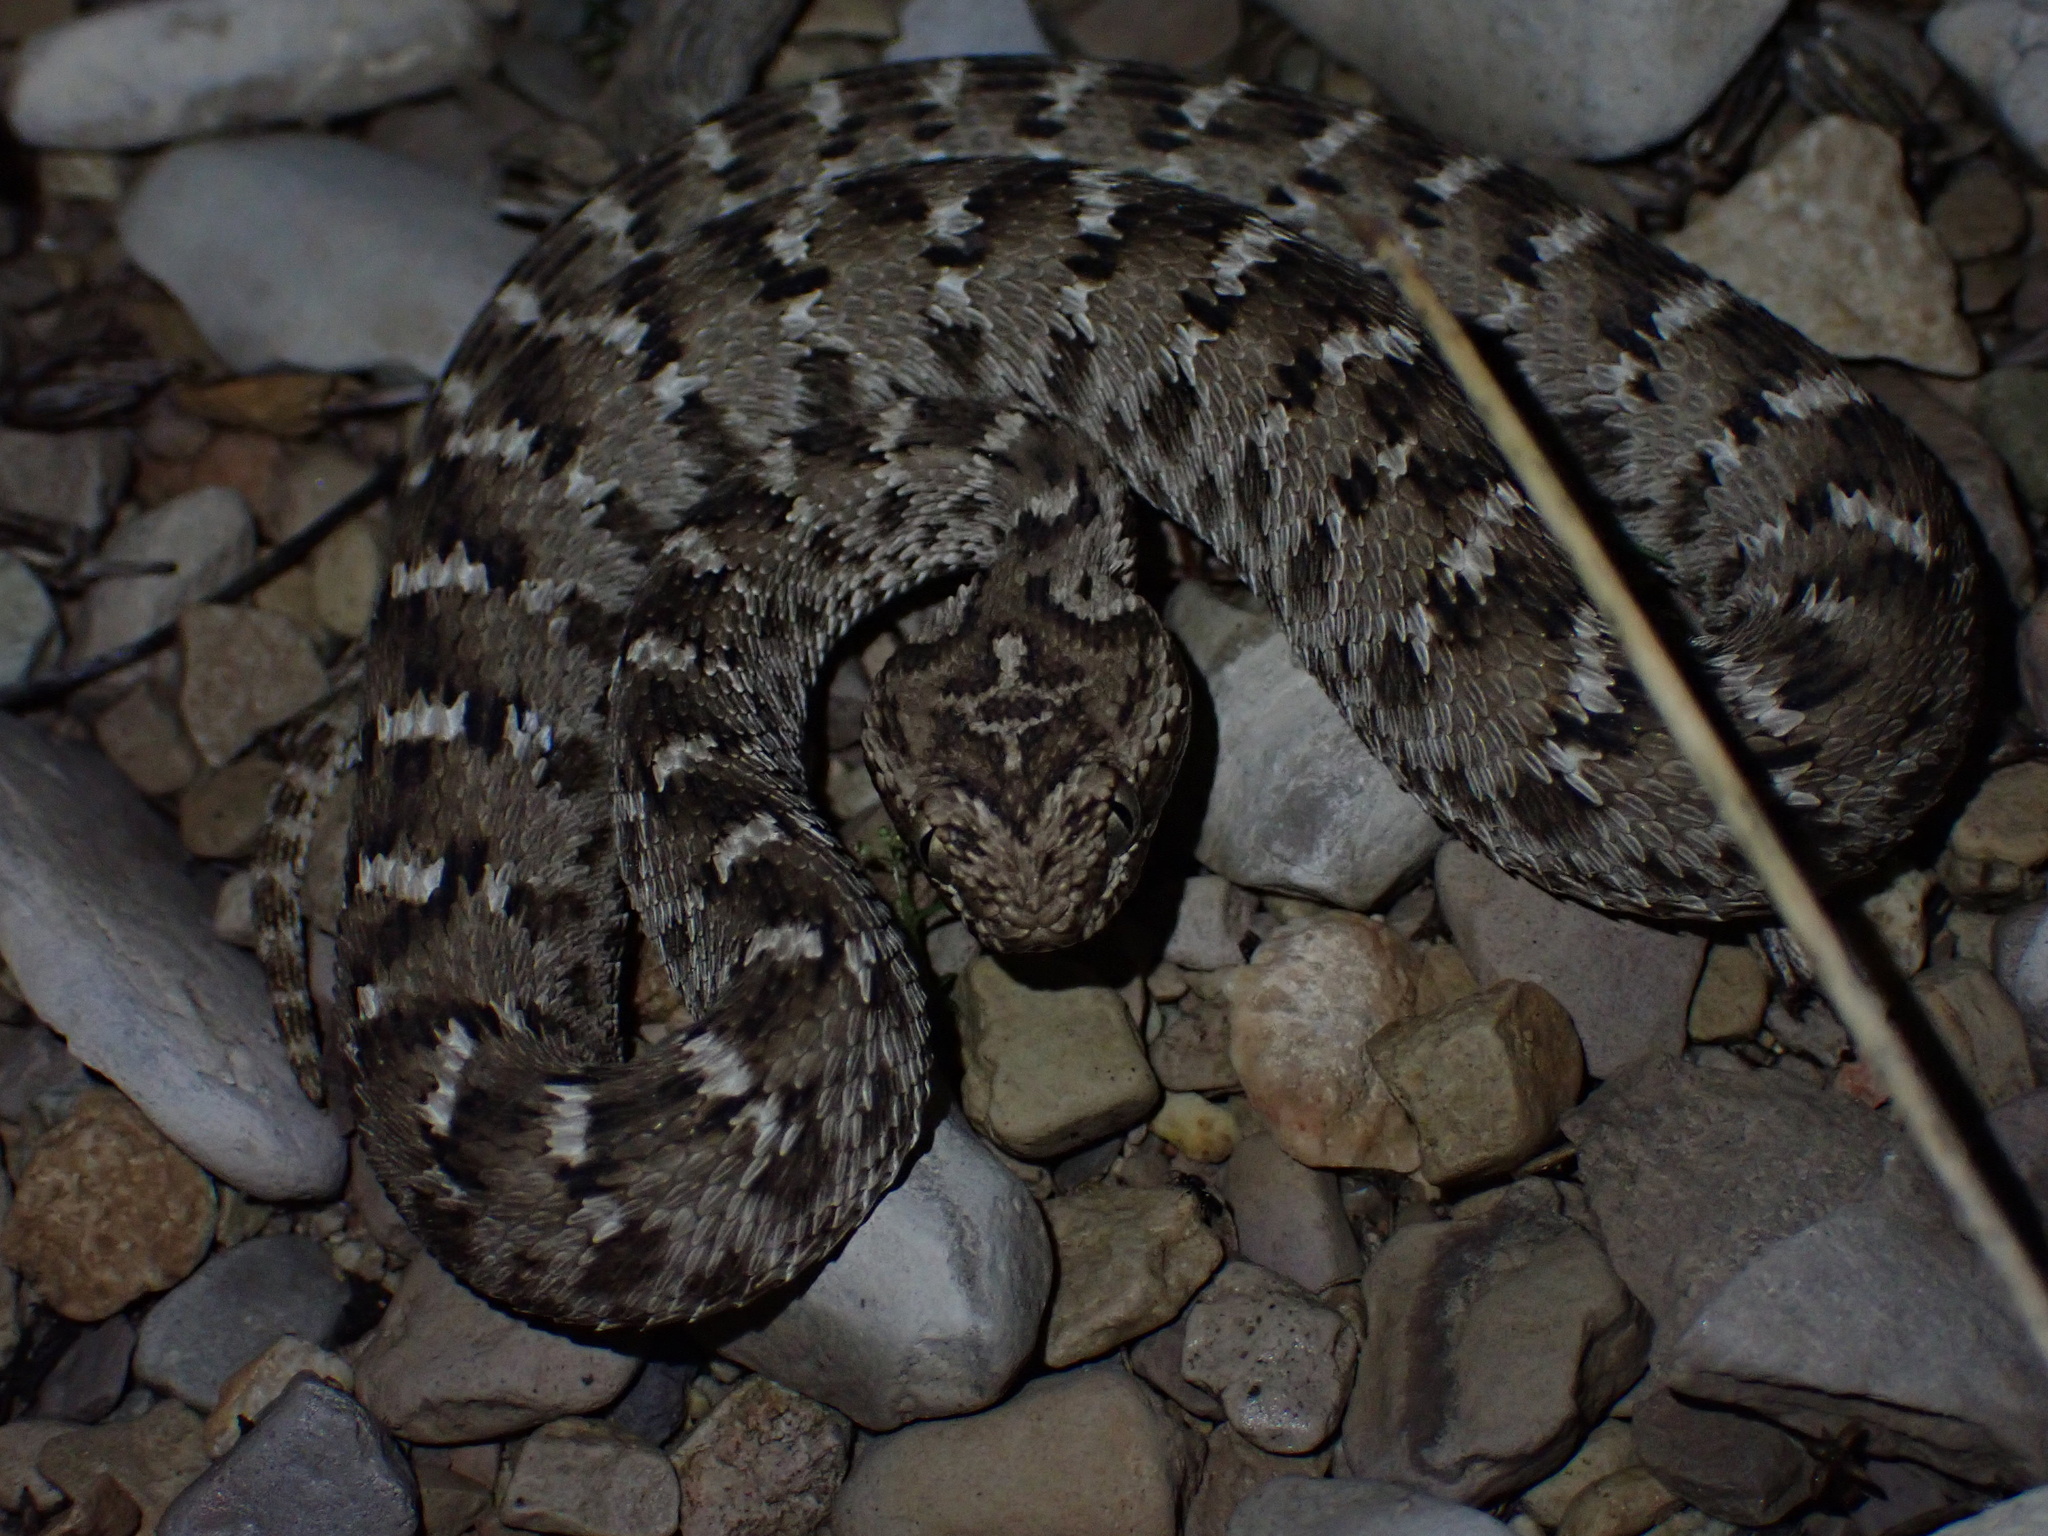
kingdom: Animalia
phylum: Chordata
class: Squamata
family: Viperidae
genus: Echis
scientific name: Echis carinatus
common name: Saw-scaled viper
